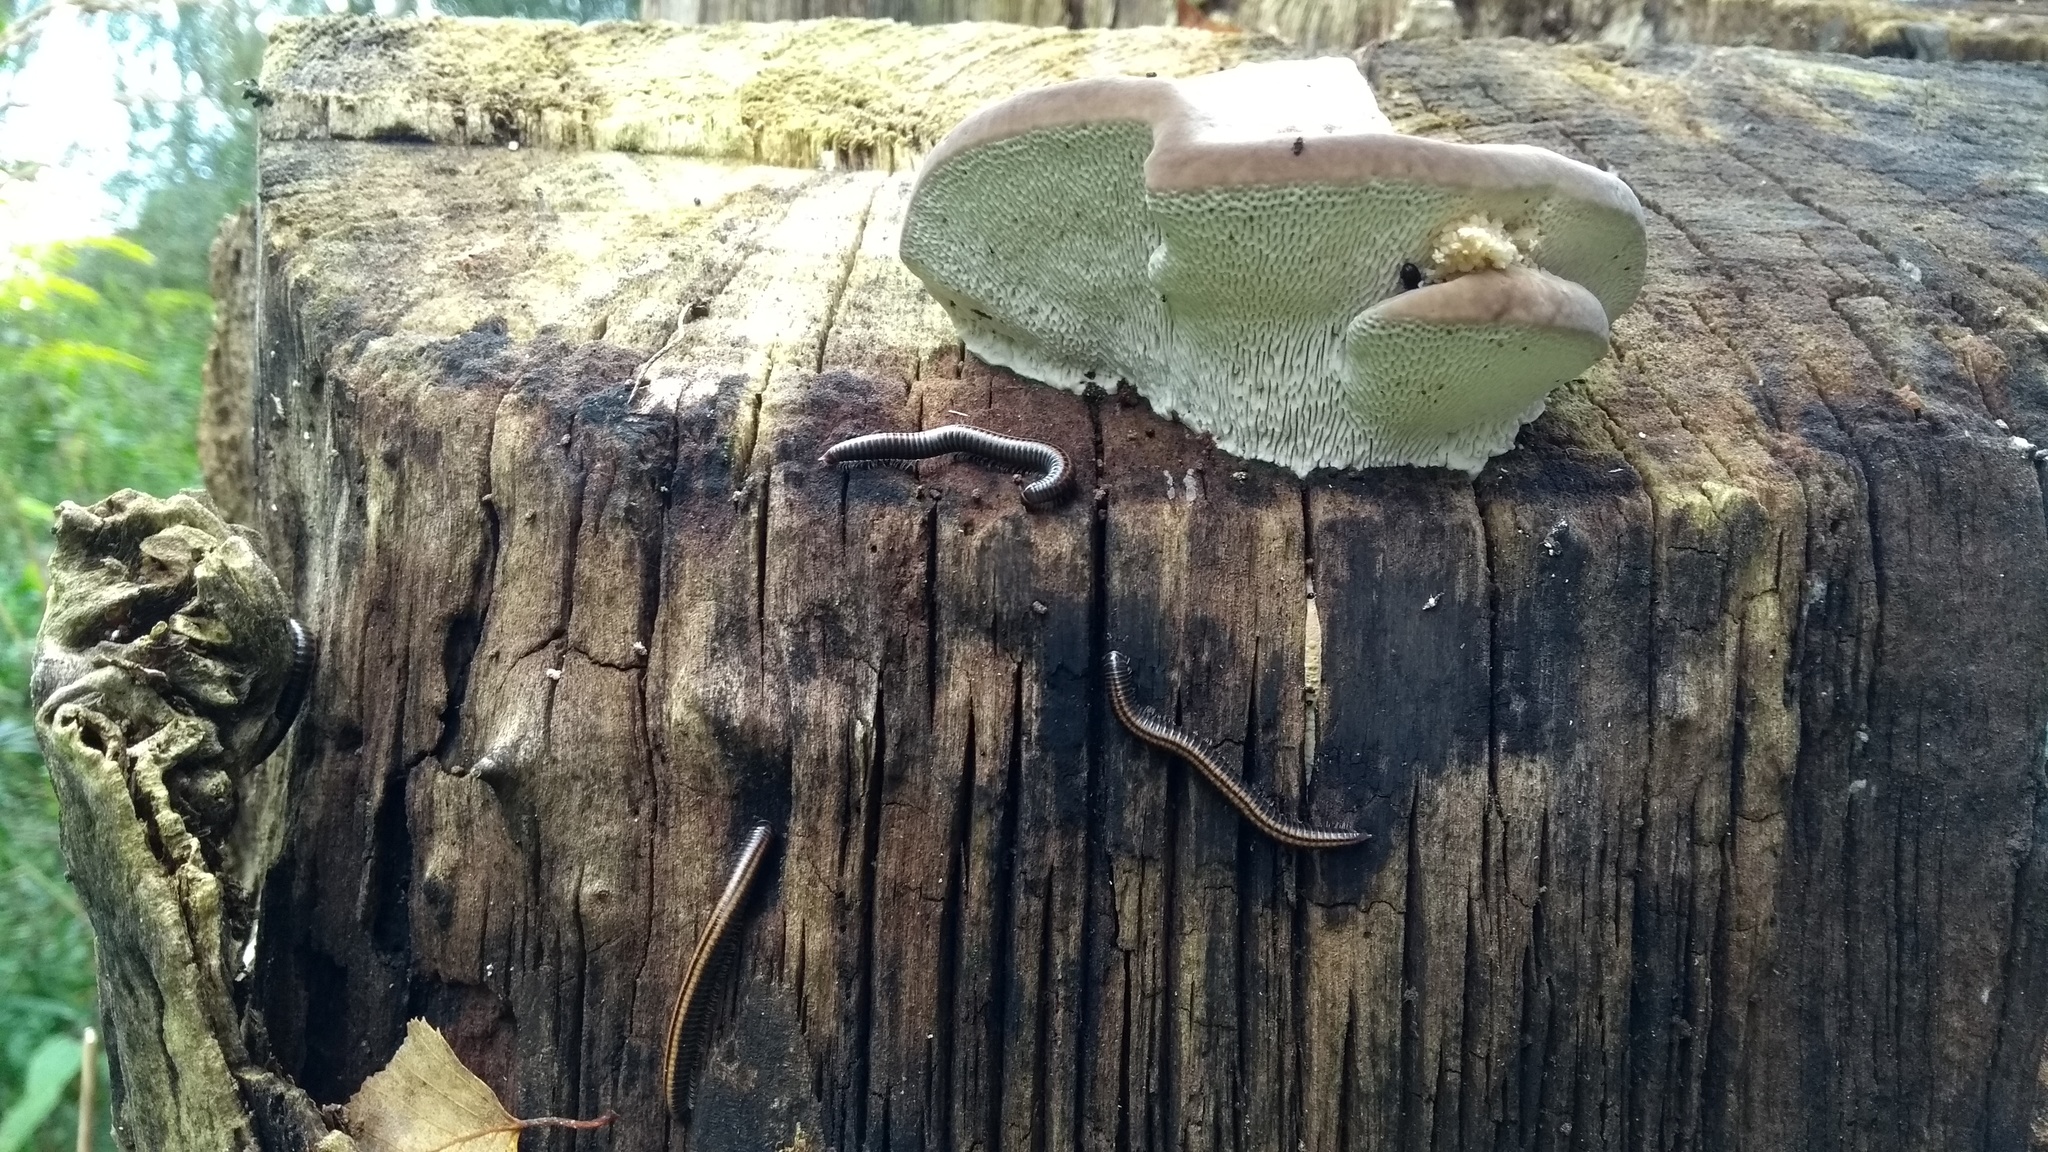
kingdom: Animalia
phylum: Arthropoda
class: Diplopoda
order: Julida
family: Julidae
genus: Ommatoiulus
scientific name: Ommatoiulus sabulosus
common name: Striped millipede
